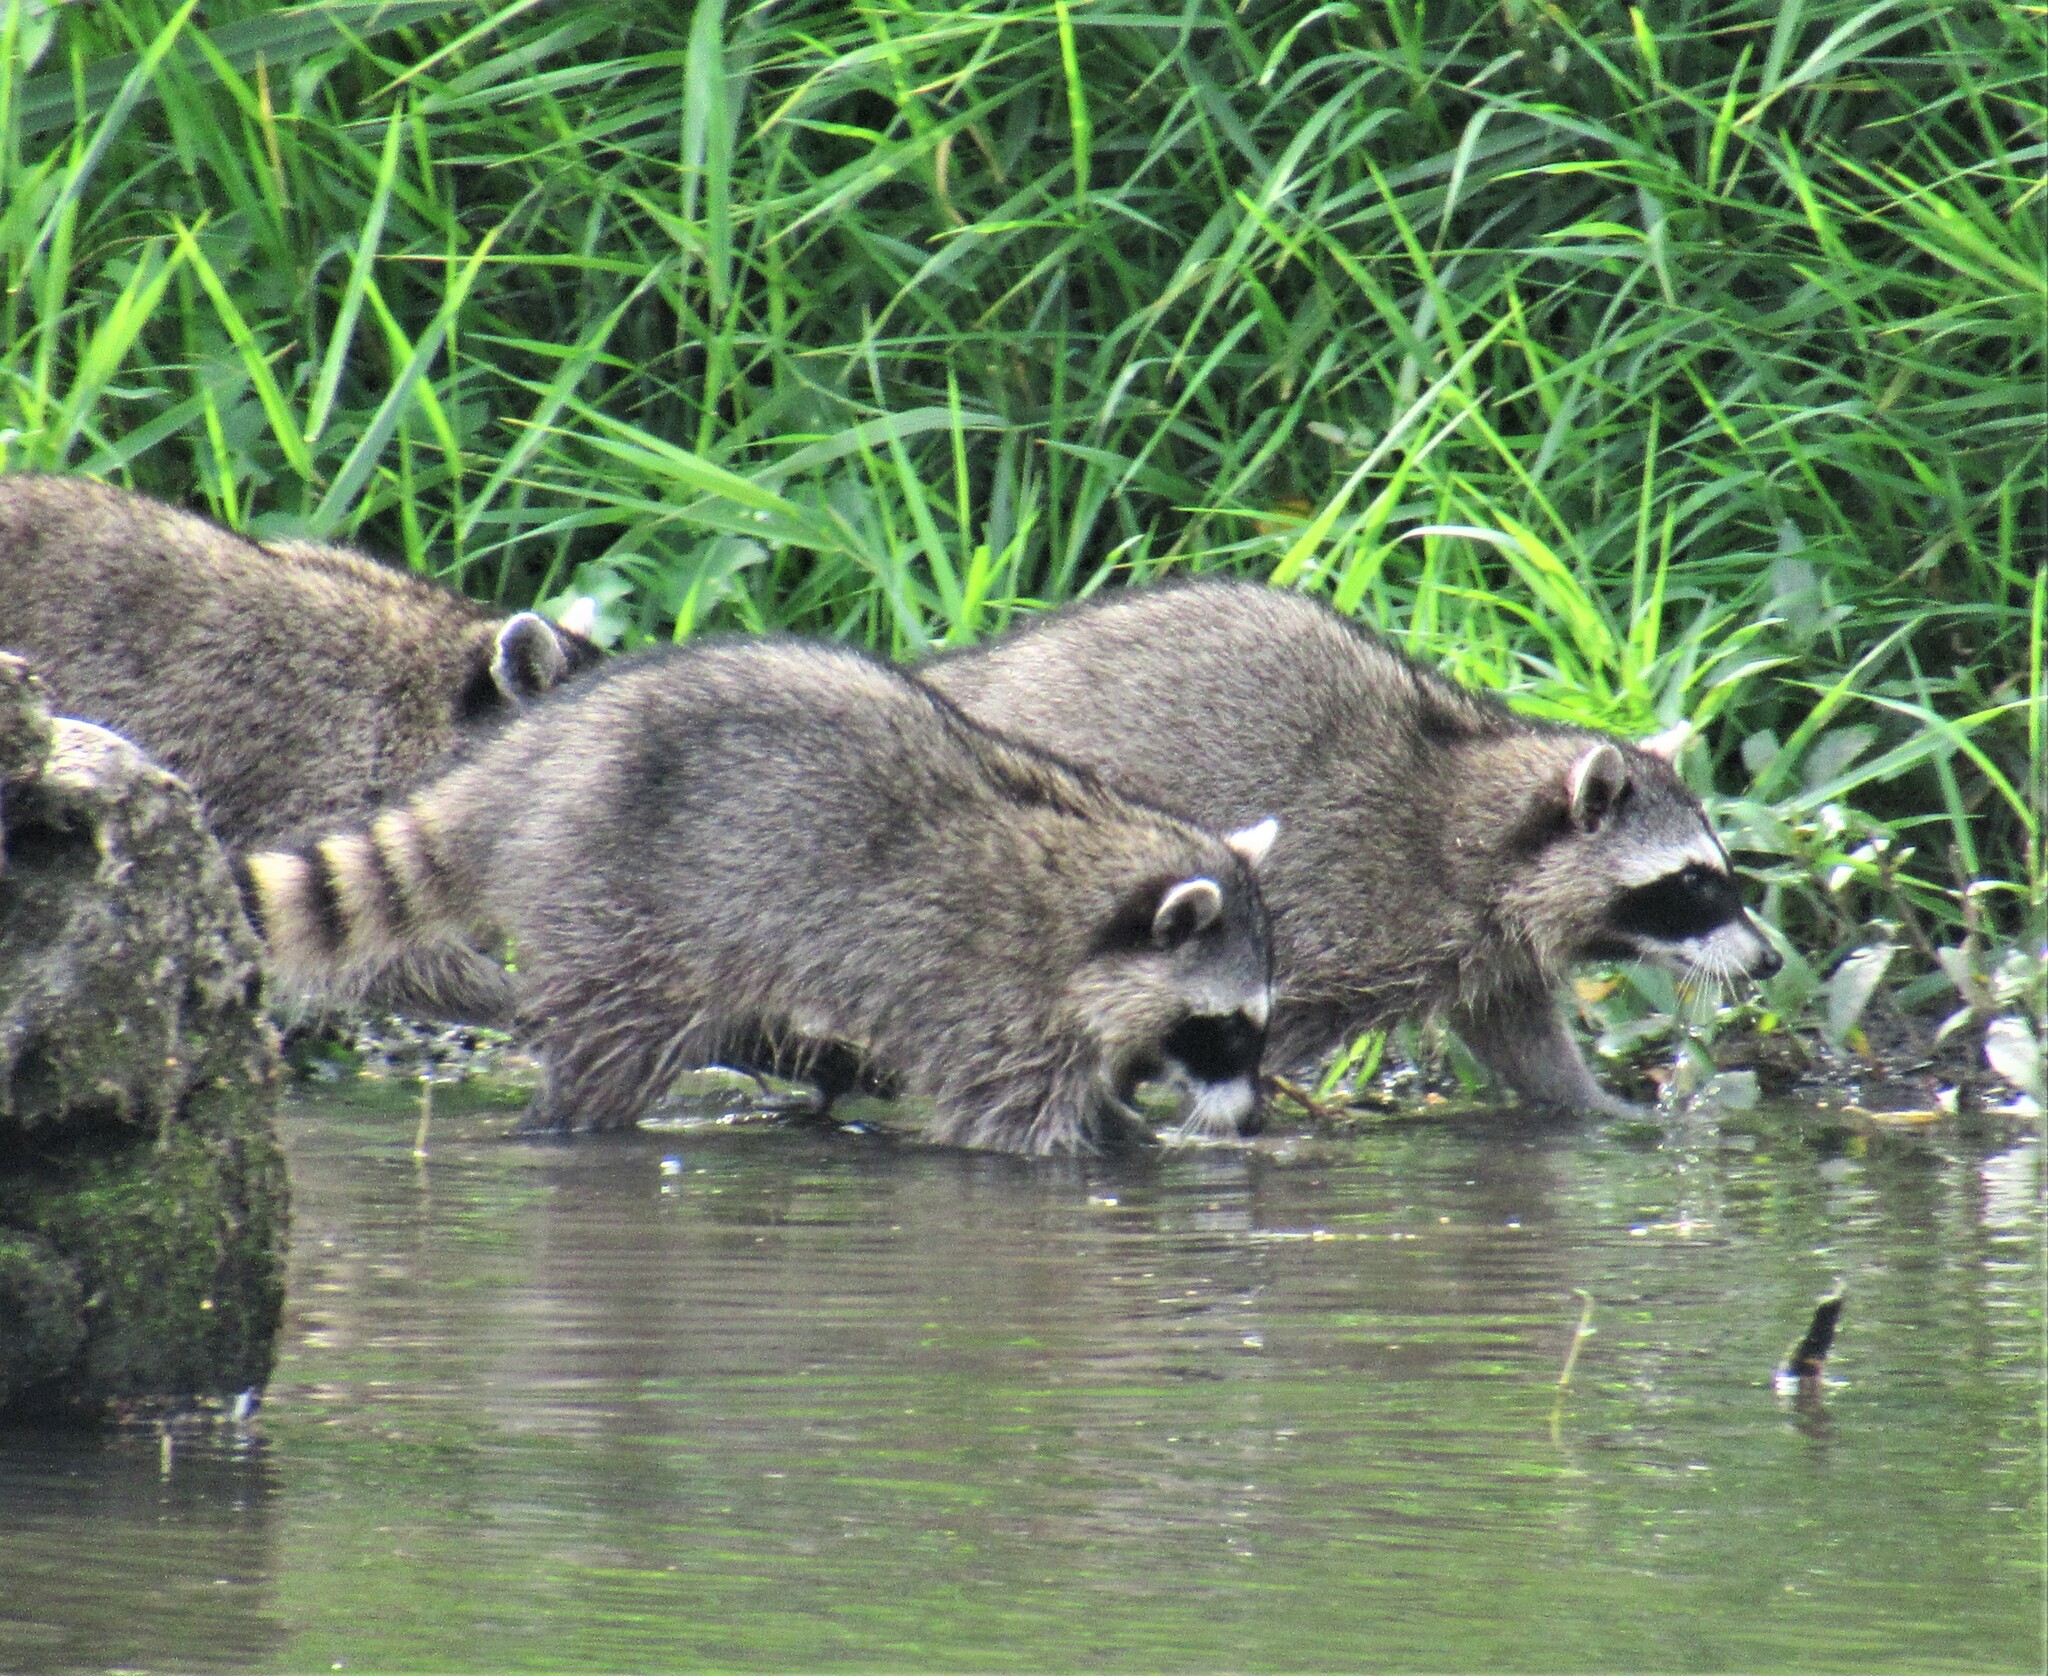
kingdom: Animalia
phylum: Chordata
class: Mammalia
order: Carnivora
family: Procyonidae
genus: Procyon
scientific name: Procyon lotor
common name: Raccoon
